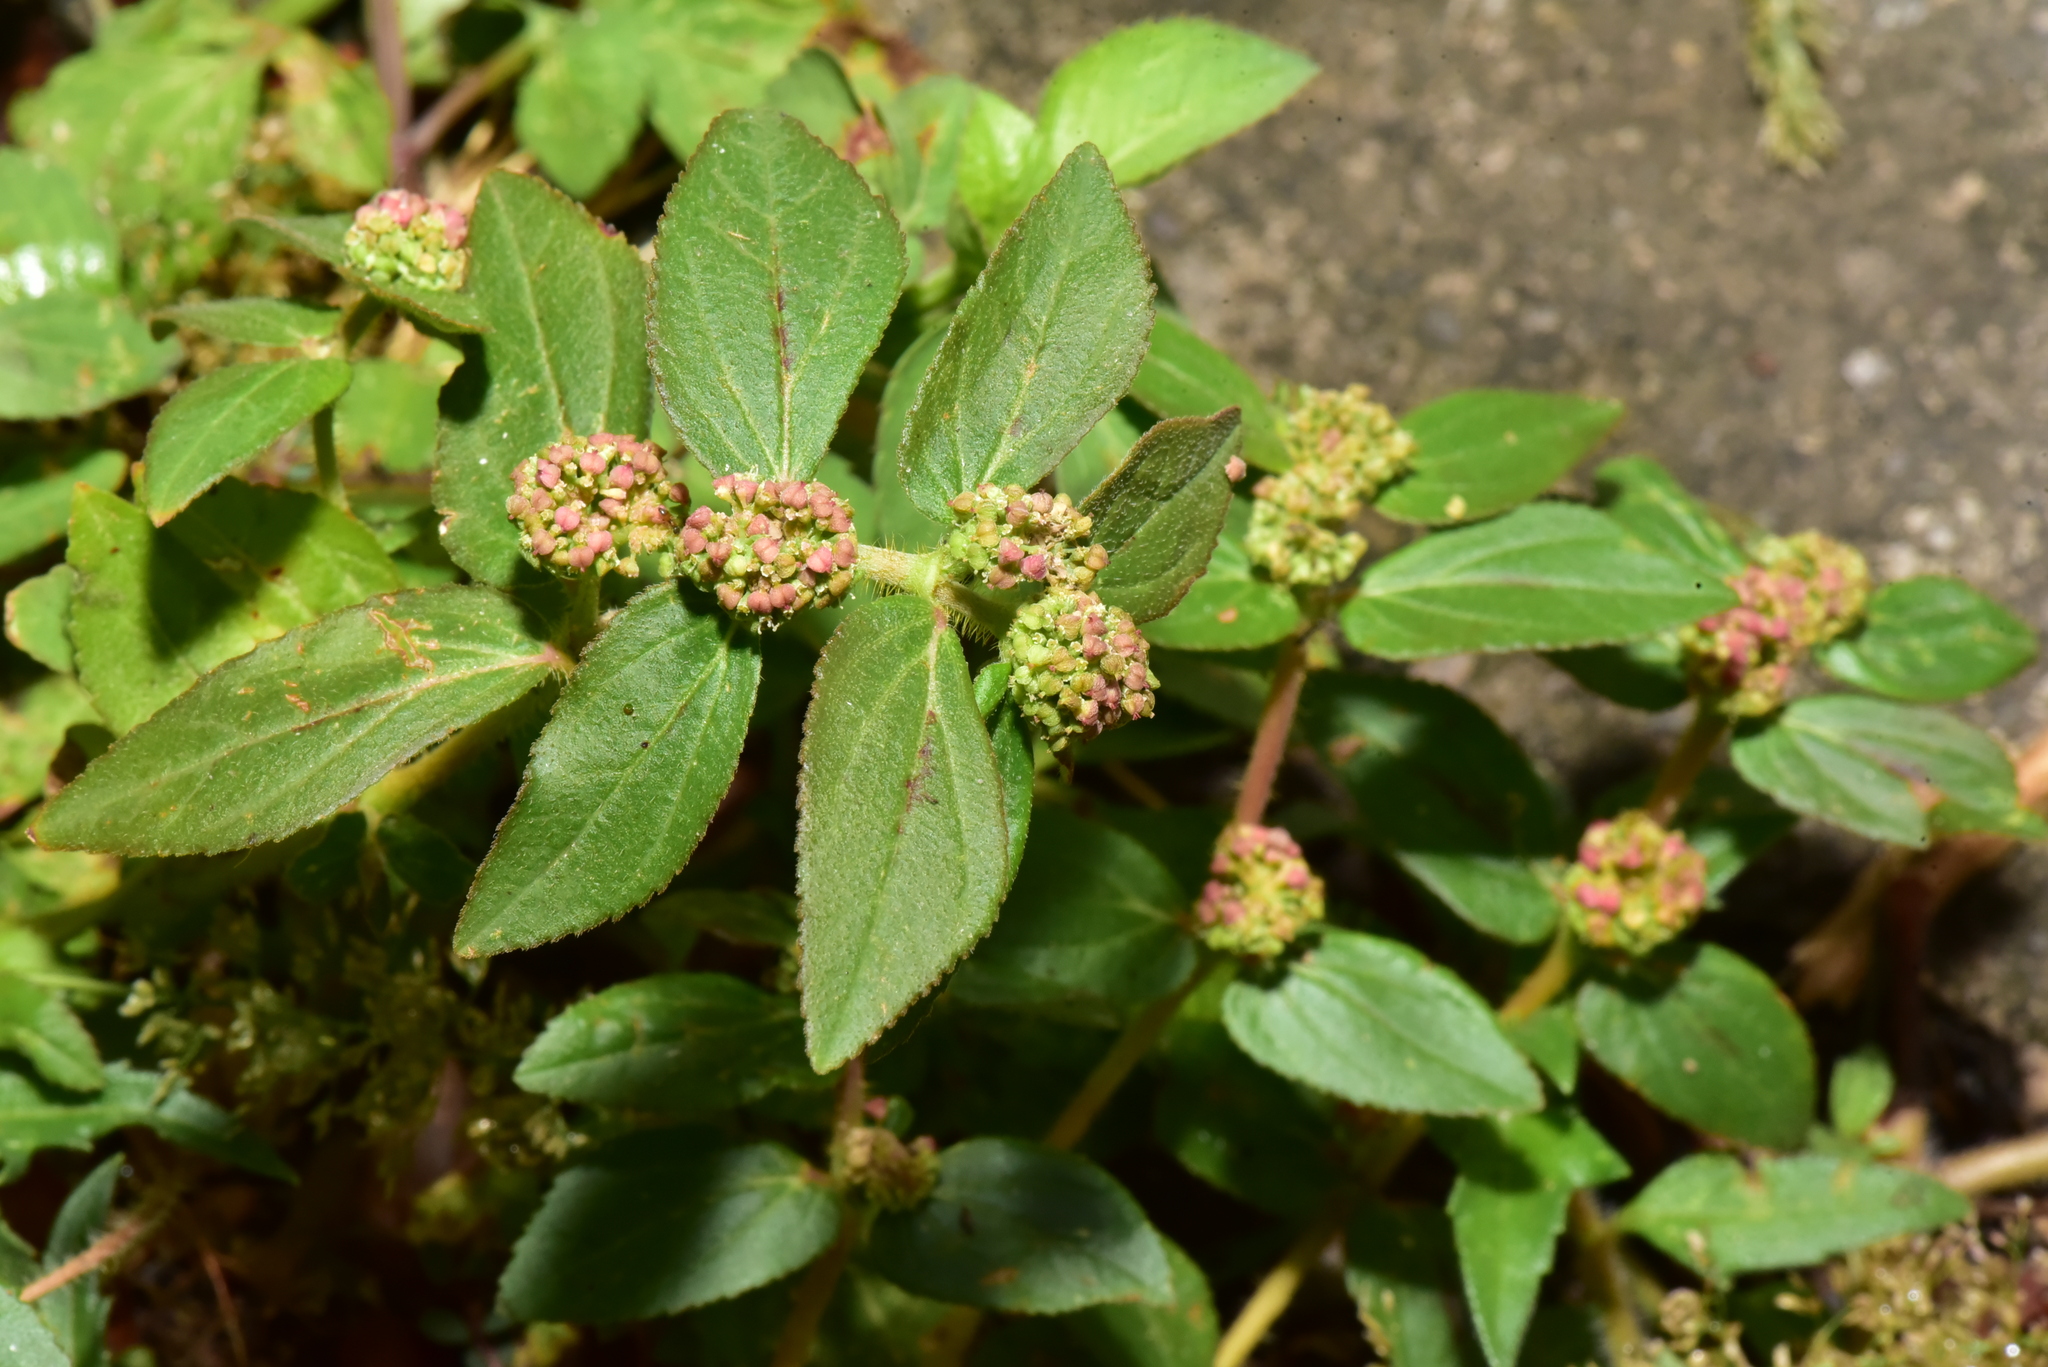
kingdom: Plantae
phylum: Tracheophyta
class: Magnoliopsida
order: Malpighiales
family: Euphorbiaceae
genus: Euphorbia
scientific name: Euphorbia hirta
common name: Pillpod sandmat
